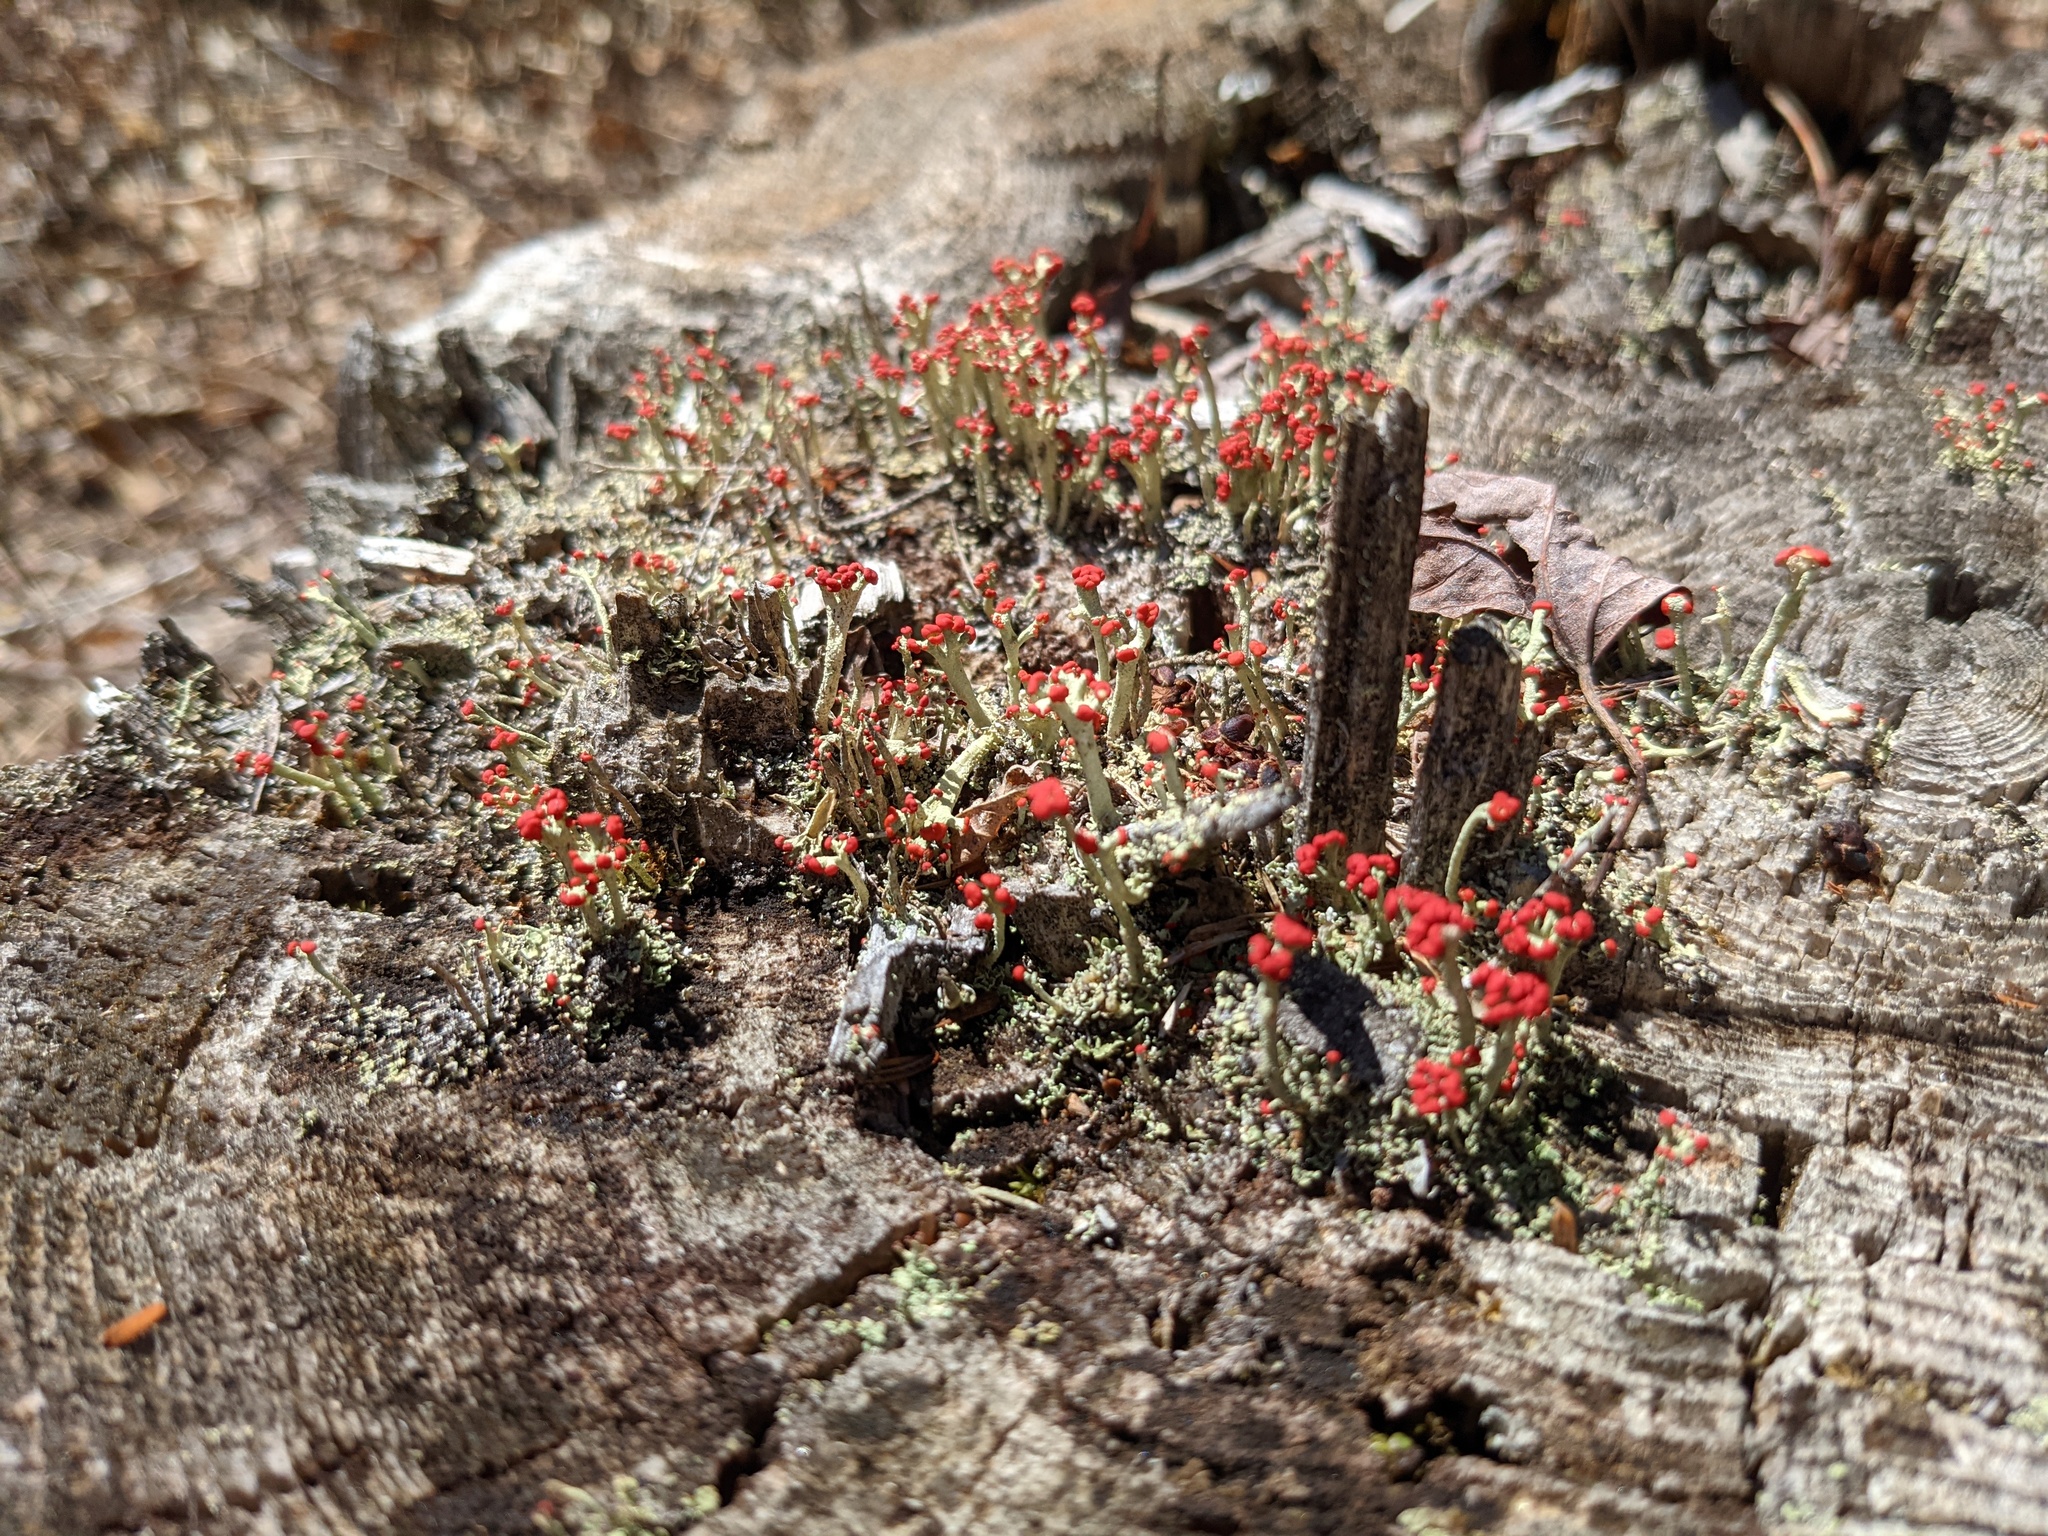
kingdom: Fungi
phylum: Ascomycota
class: Lecanoromycetes
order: Lecanorales
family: Cladoniaceae
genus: Cladonia
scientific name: Cladonia cristatella
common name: British soldier lichen
